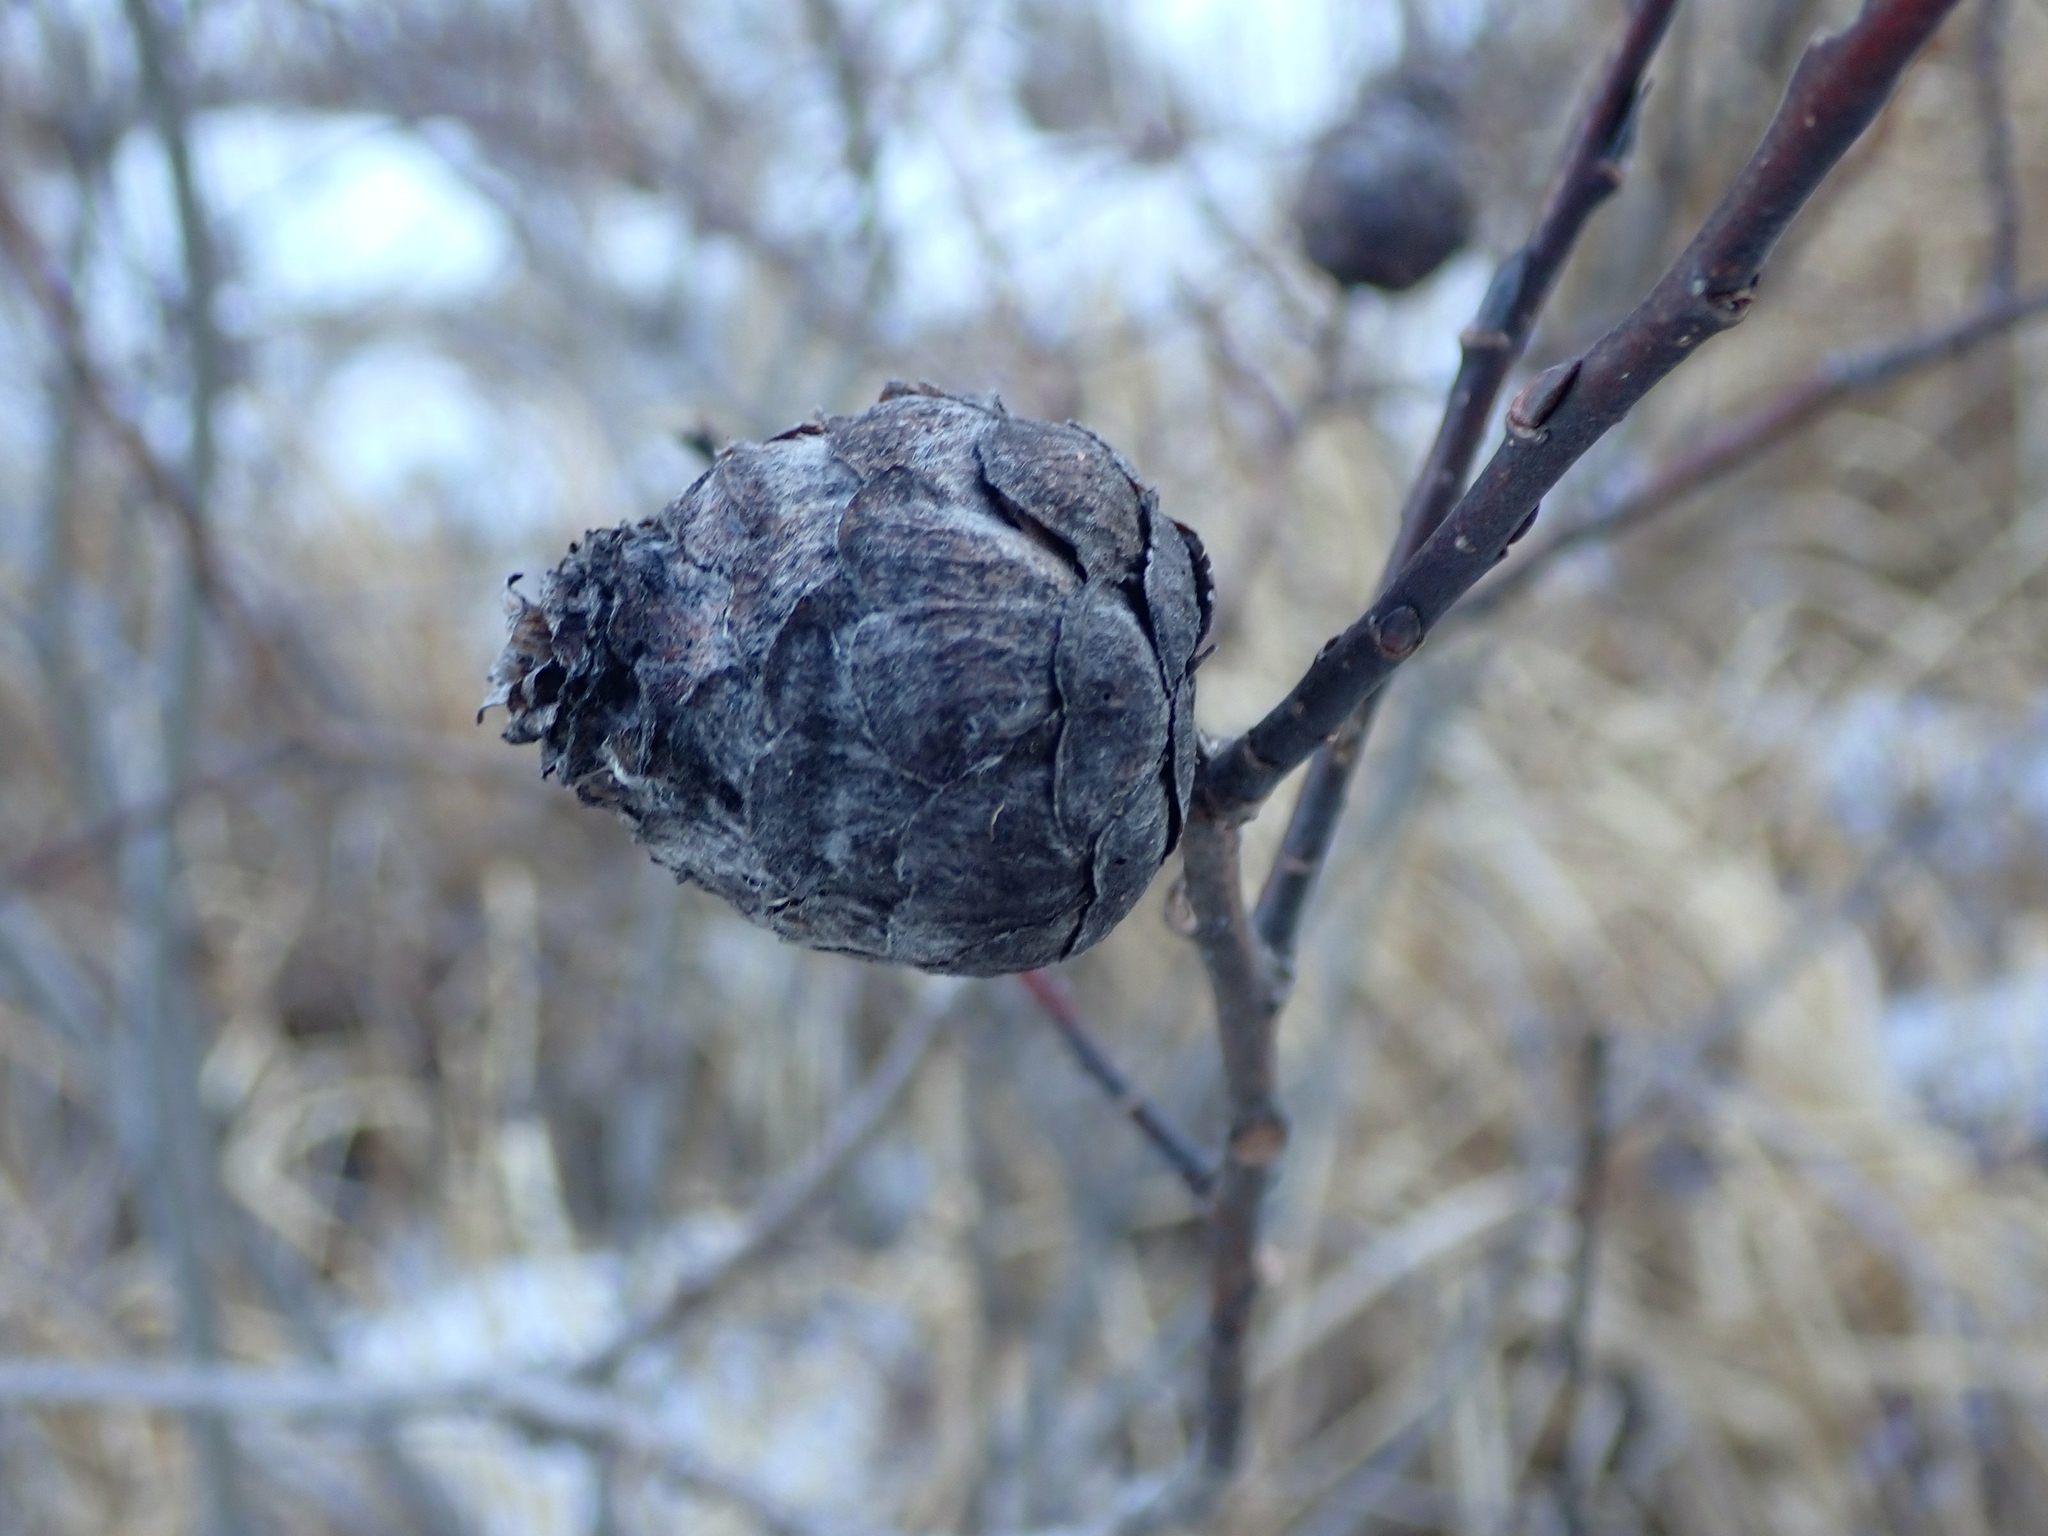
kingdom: Animalia
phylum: Arthropoda
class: Insecta
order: Diptera
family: Cecidomyiidae
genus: Rabdophaga
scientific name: Rabdophaga strobiloides
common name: Willow pinecone gall midge
